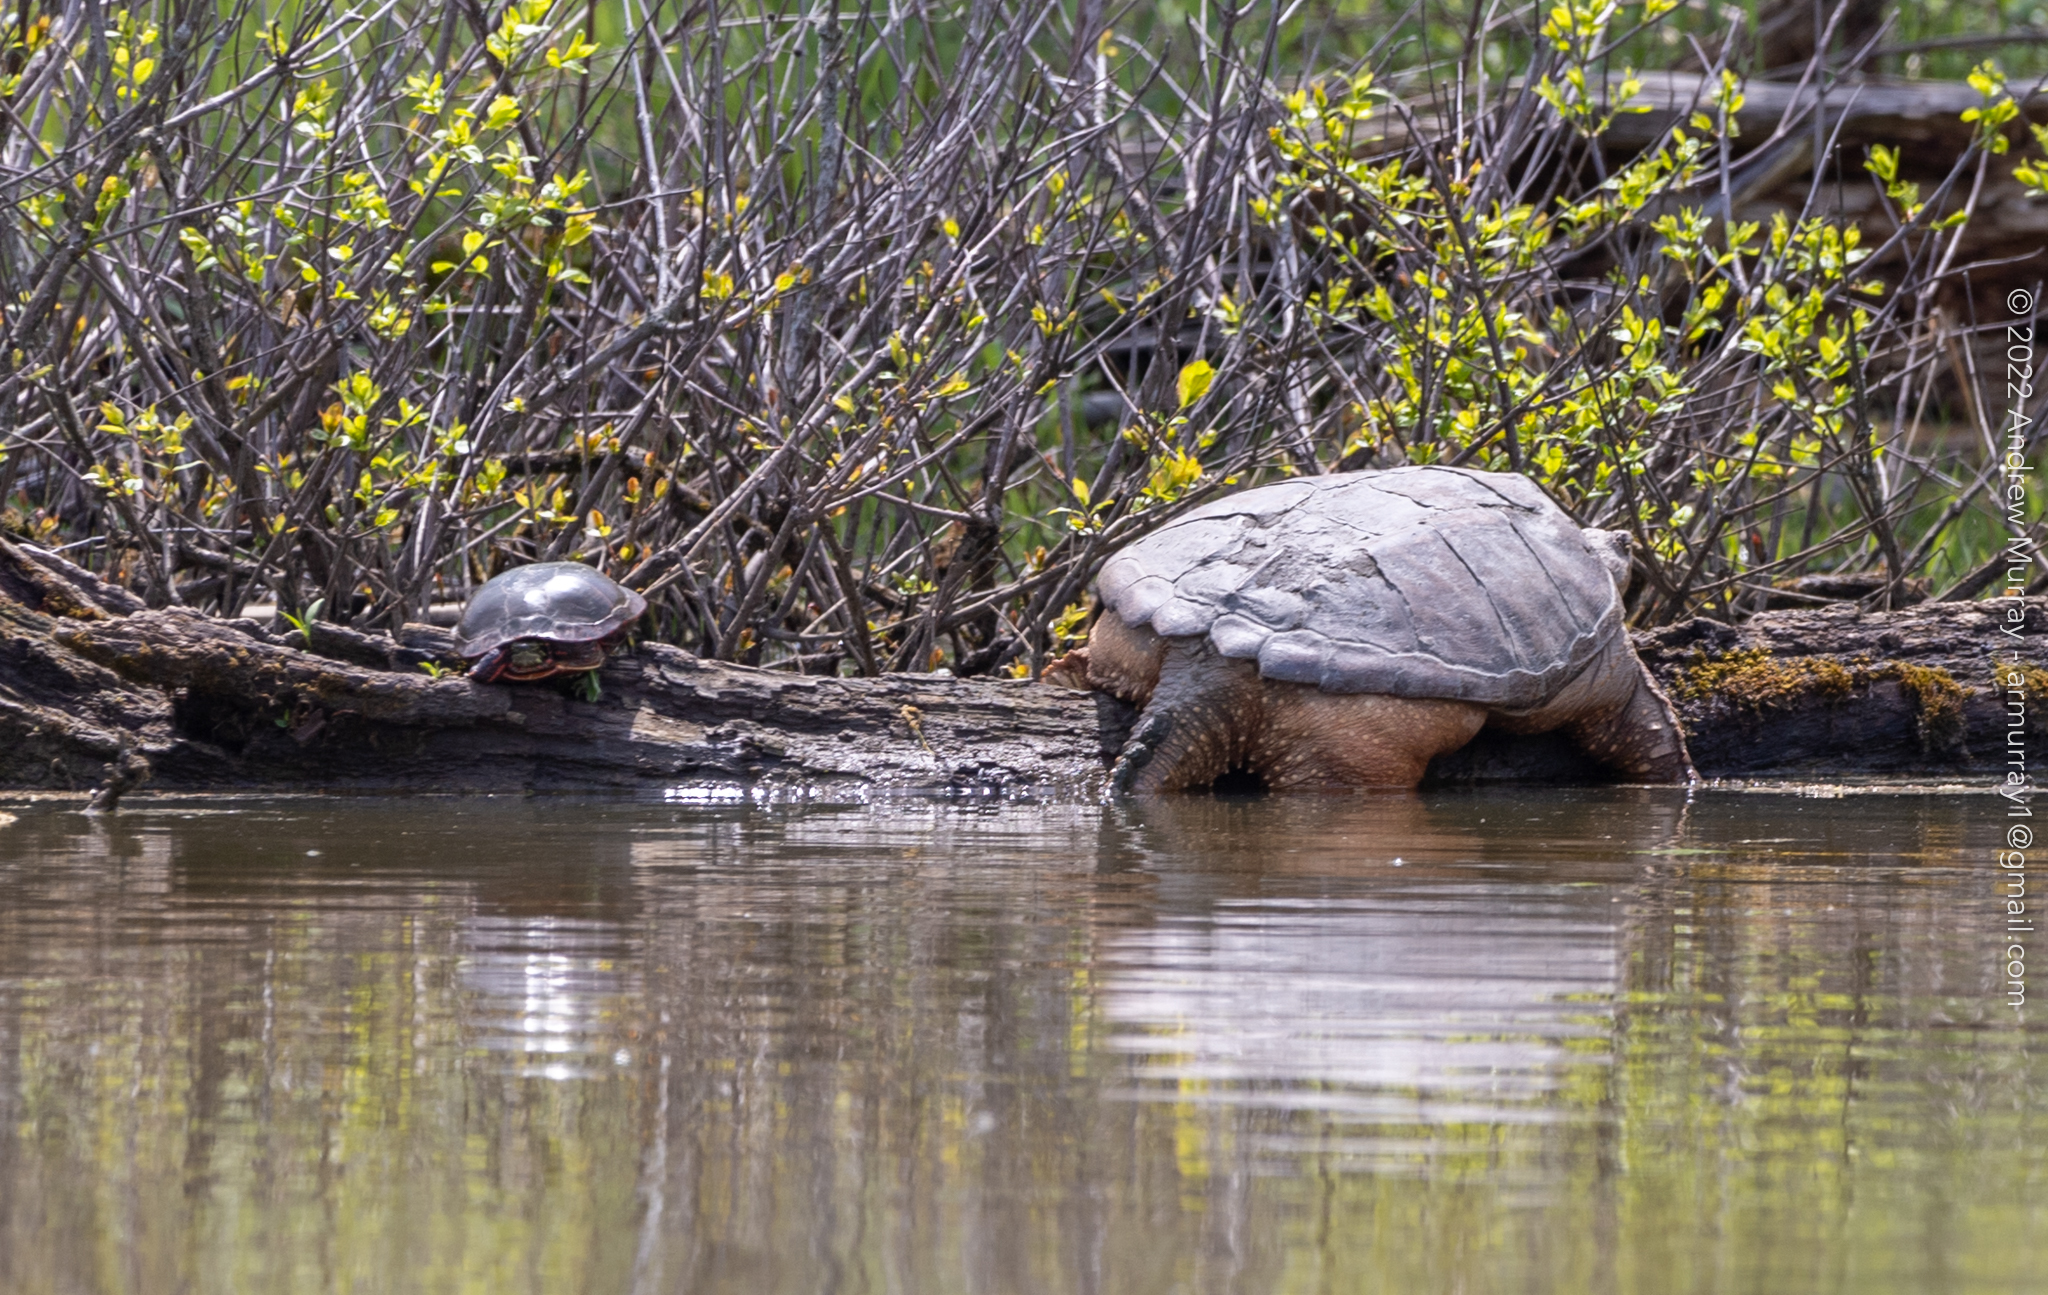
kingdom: Animalia
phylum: Chordata
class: Testudines
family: Chelydridae
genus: Chelydra
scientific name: Chelydra serpentina
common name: Common snapping turtle
